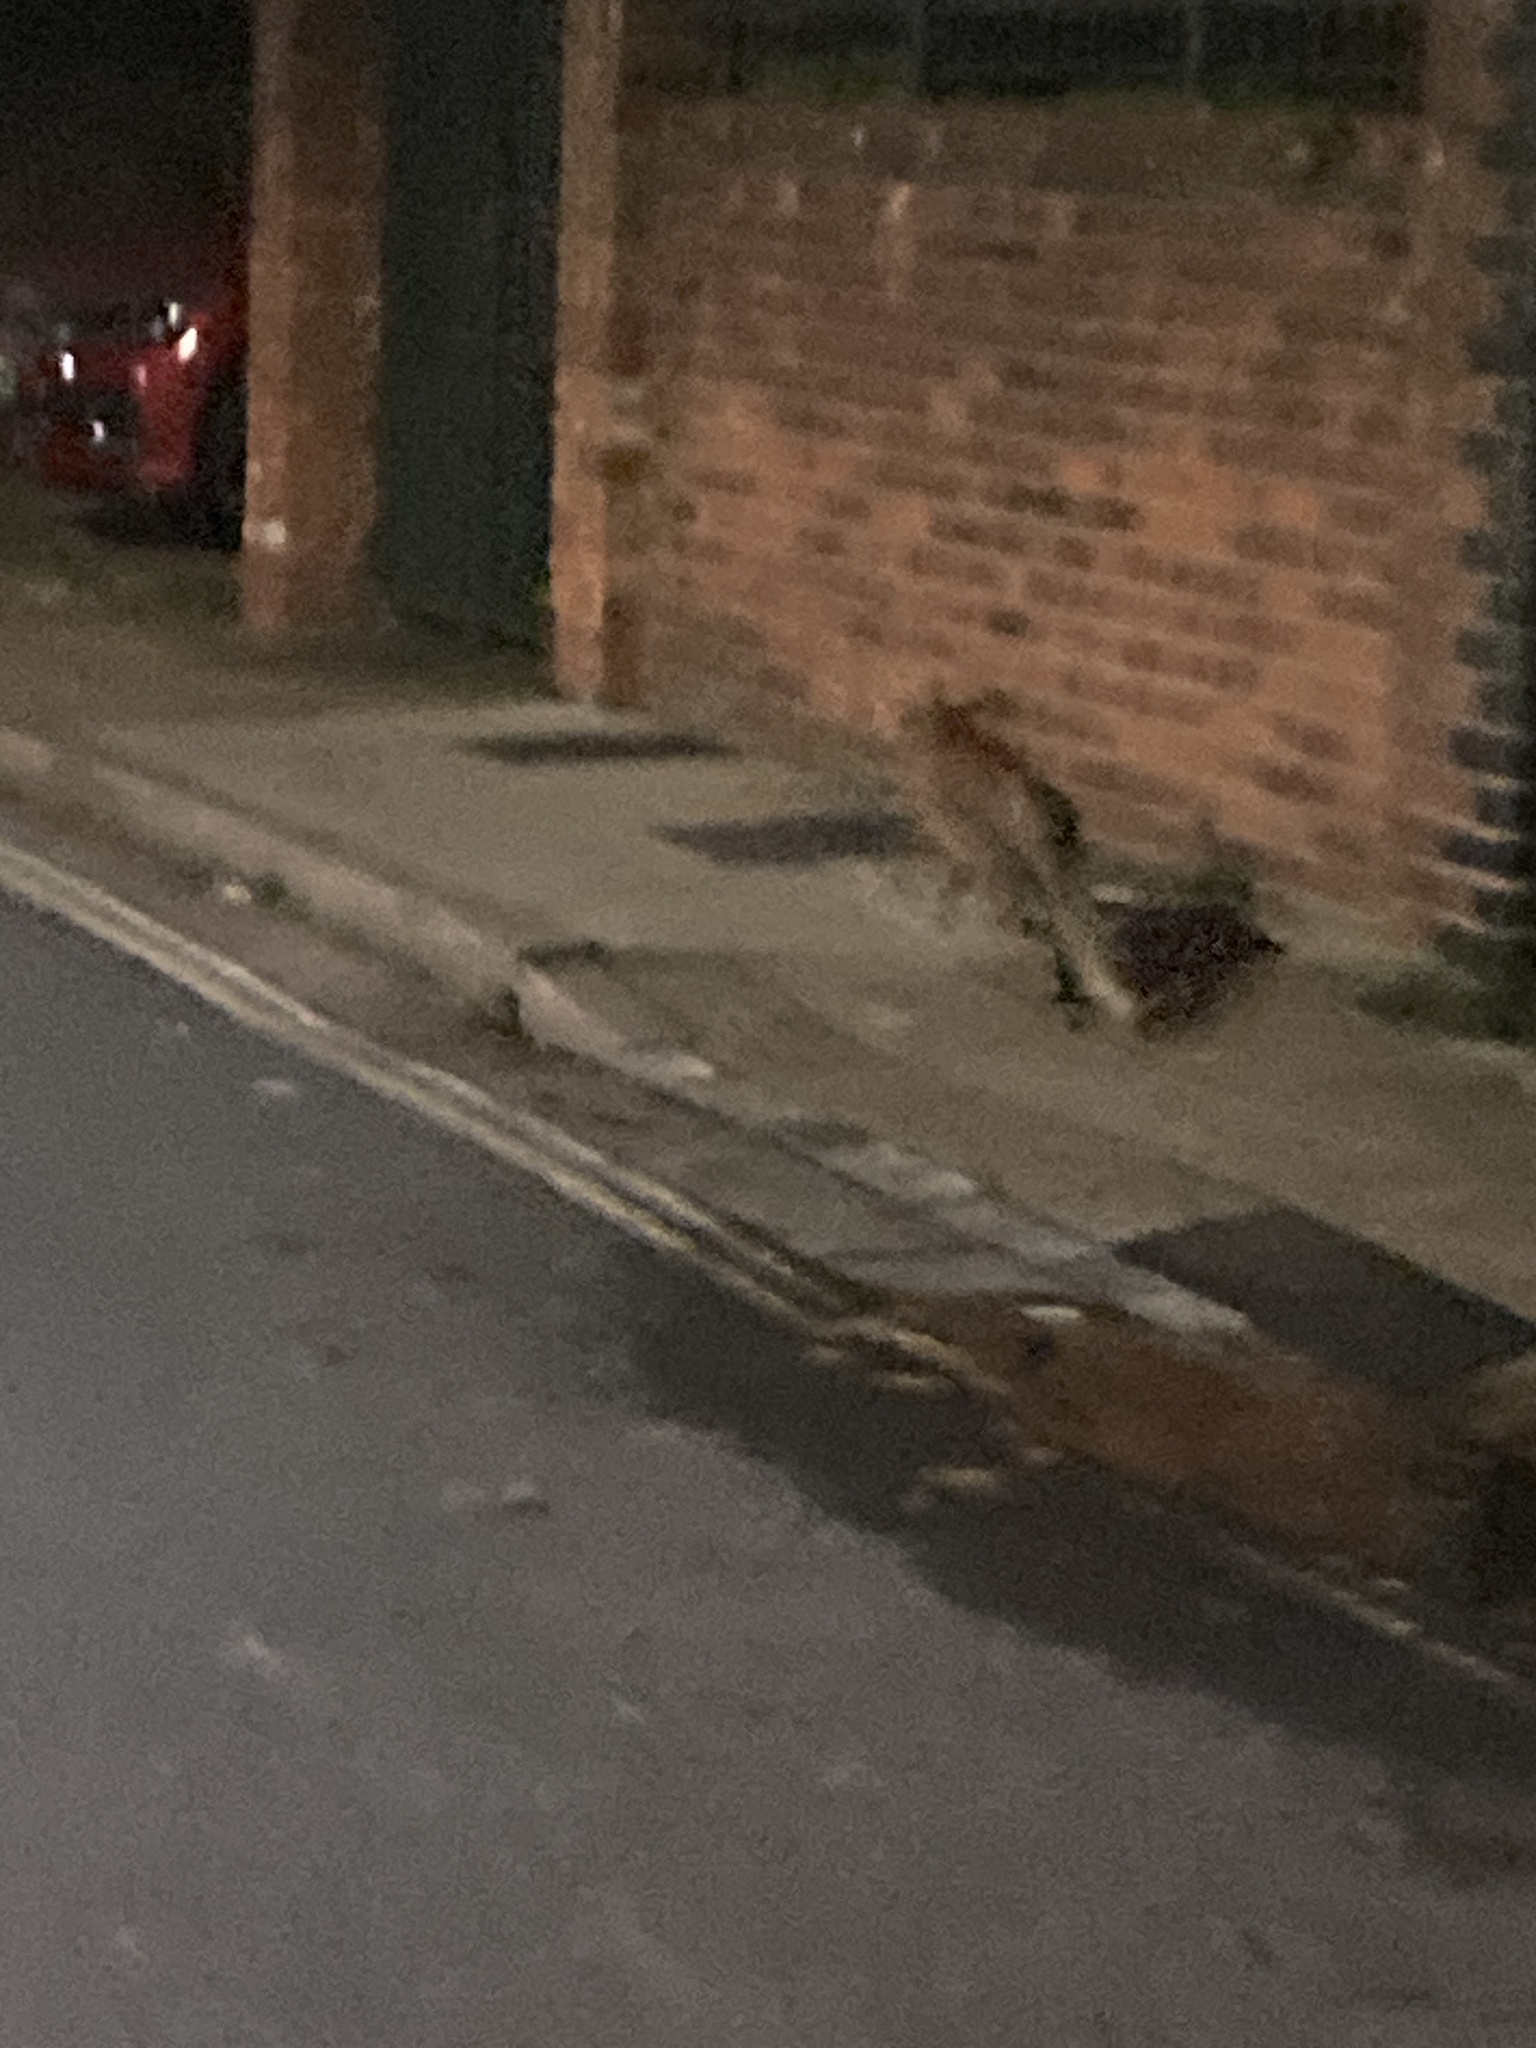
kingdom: Animalia
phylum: Chordata
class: Mammalia
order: Carnivora
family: Canidae
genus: Vulpes
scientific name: Vulpes vulpes
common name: Red fox
